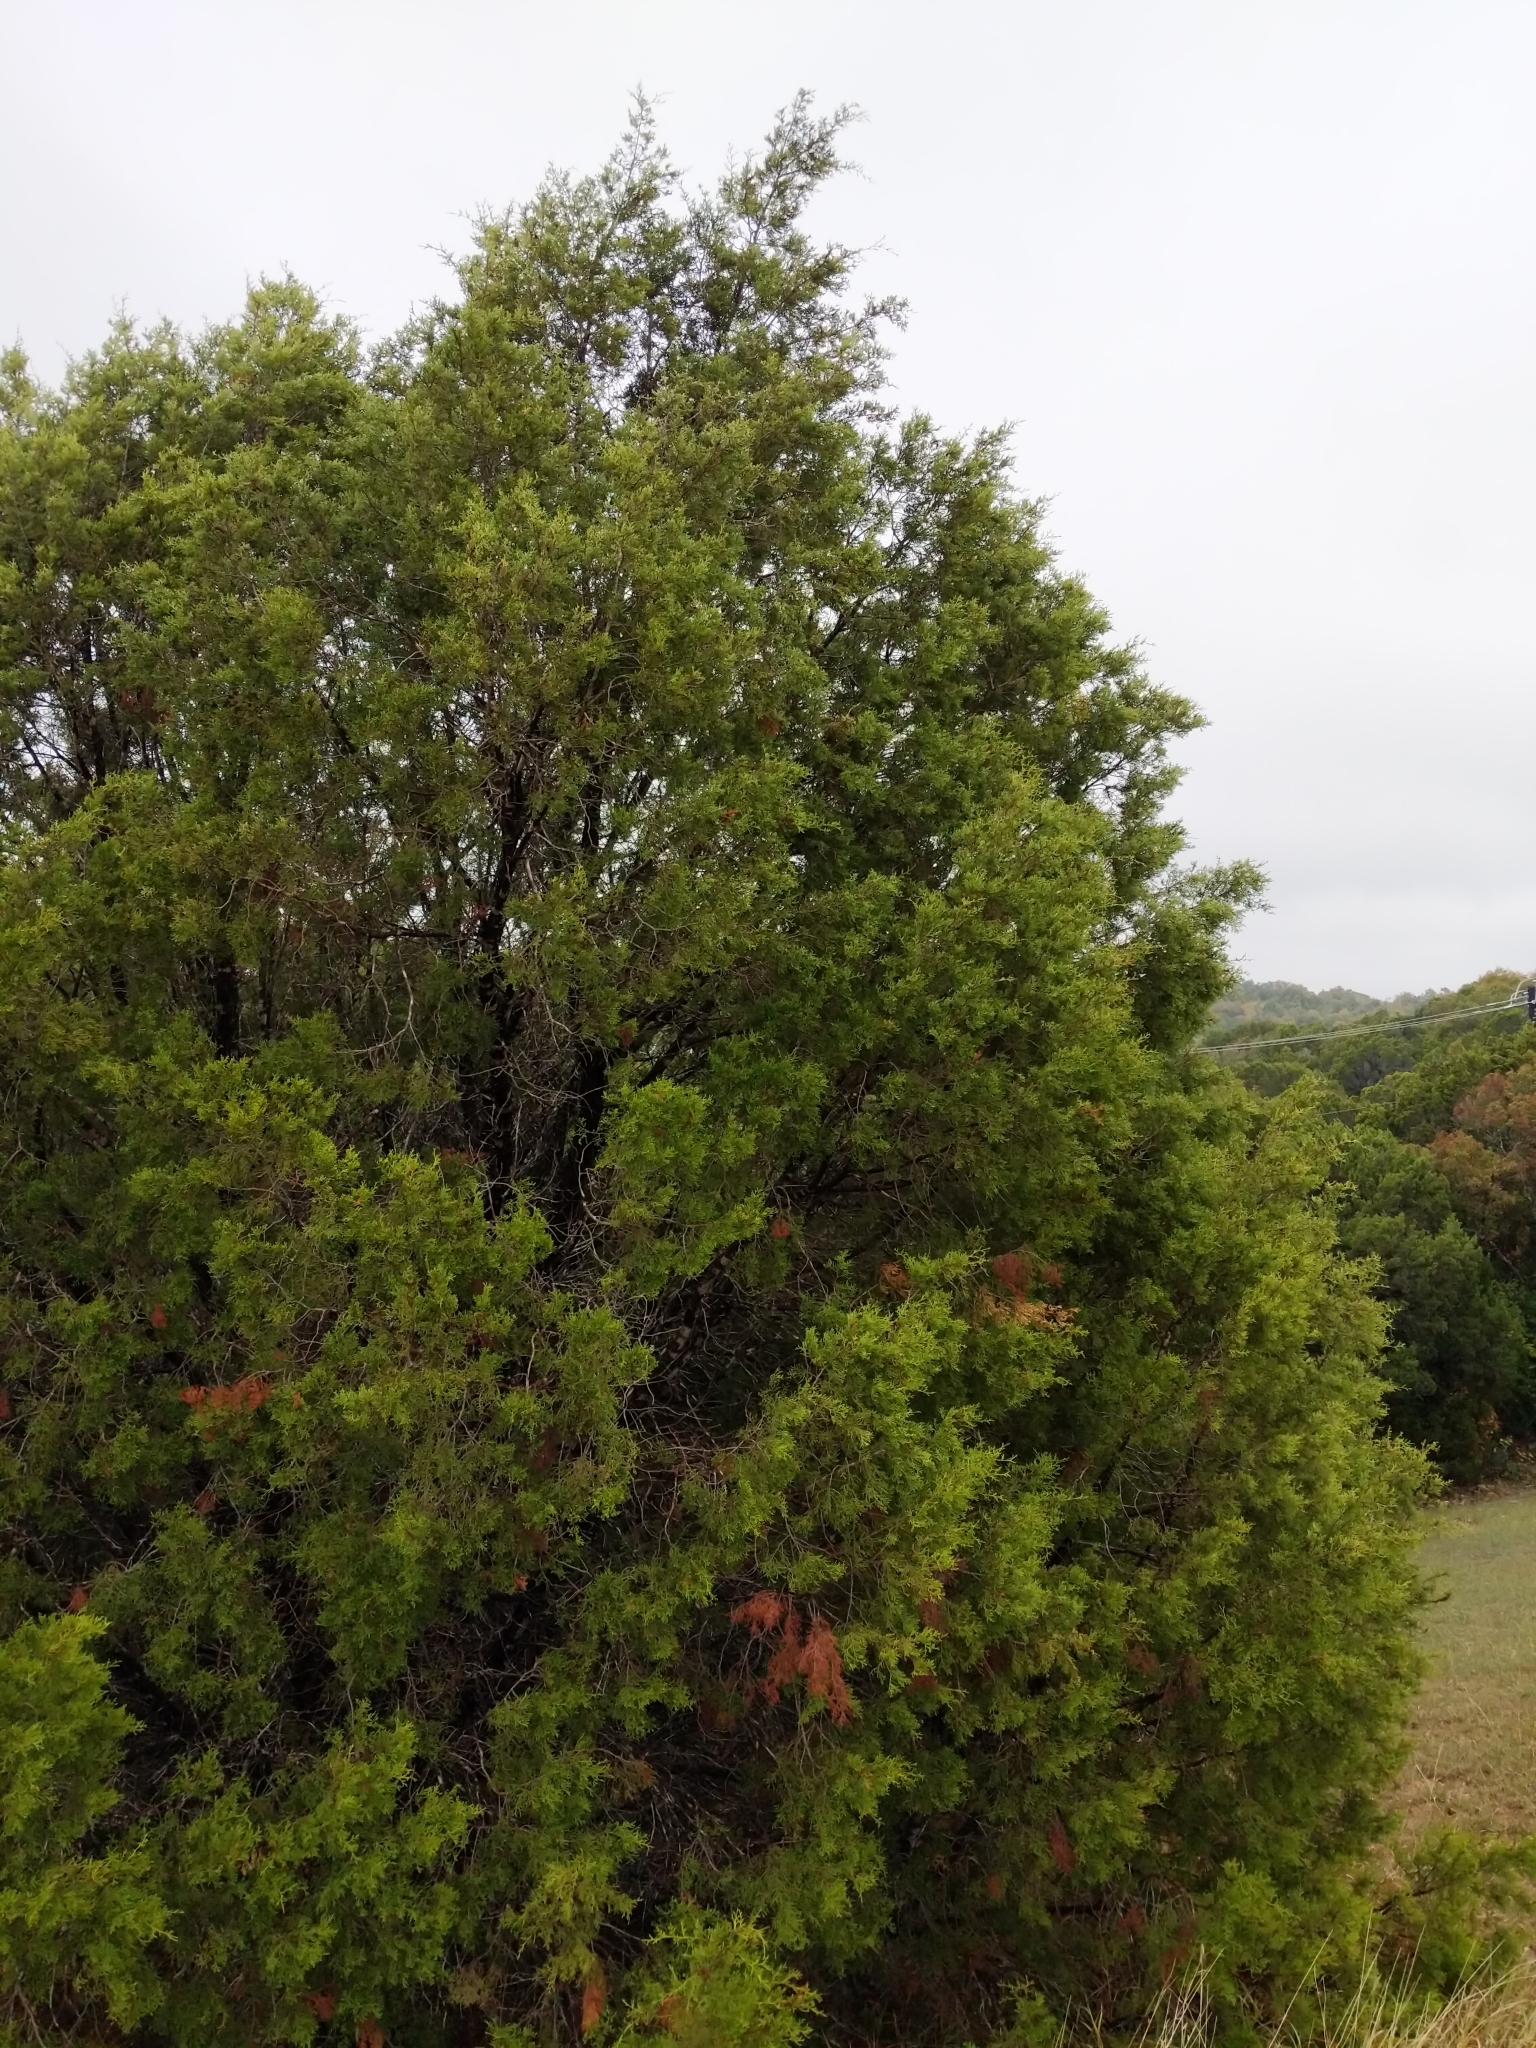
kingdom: Plantae
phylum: Tracheophyta
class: Pinopsida
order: Pinales
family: Cupressaceae
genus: Juniperus
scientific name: Juniperus ashei
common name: Mexican juniper
